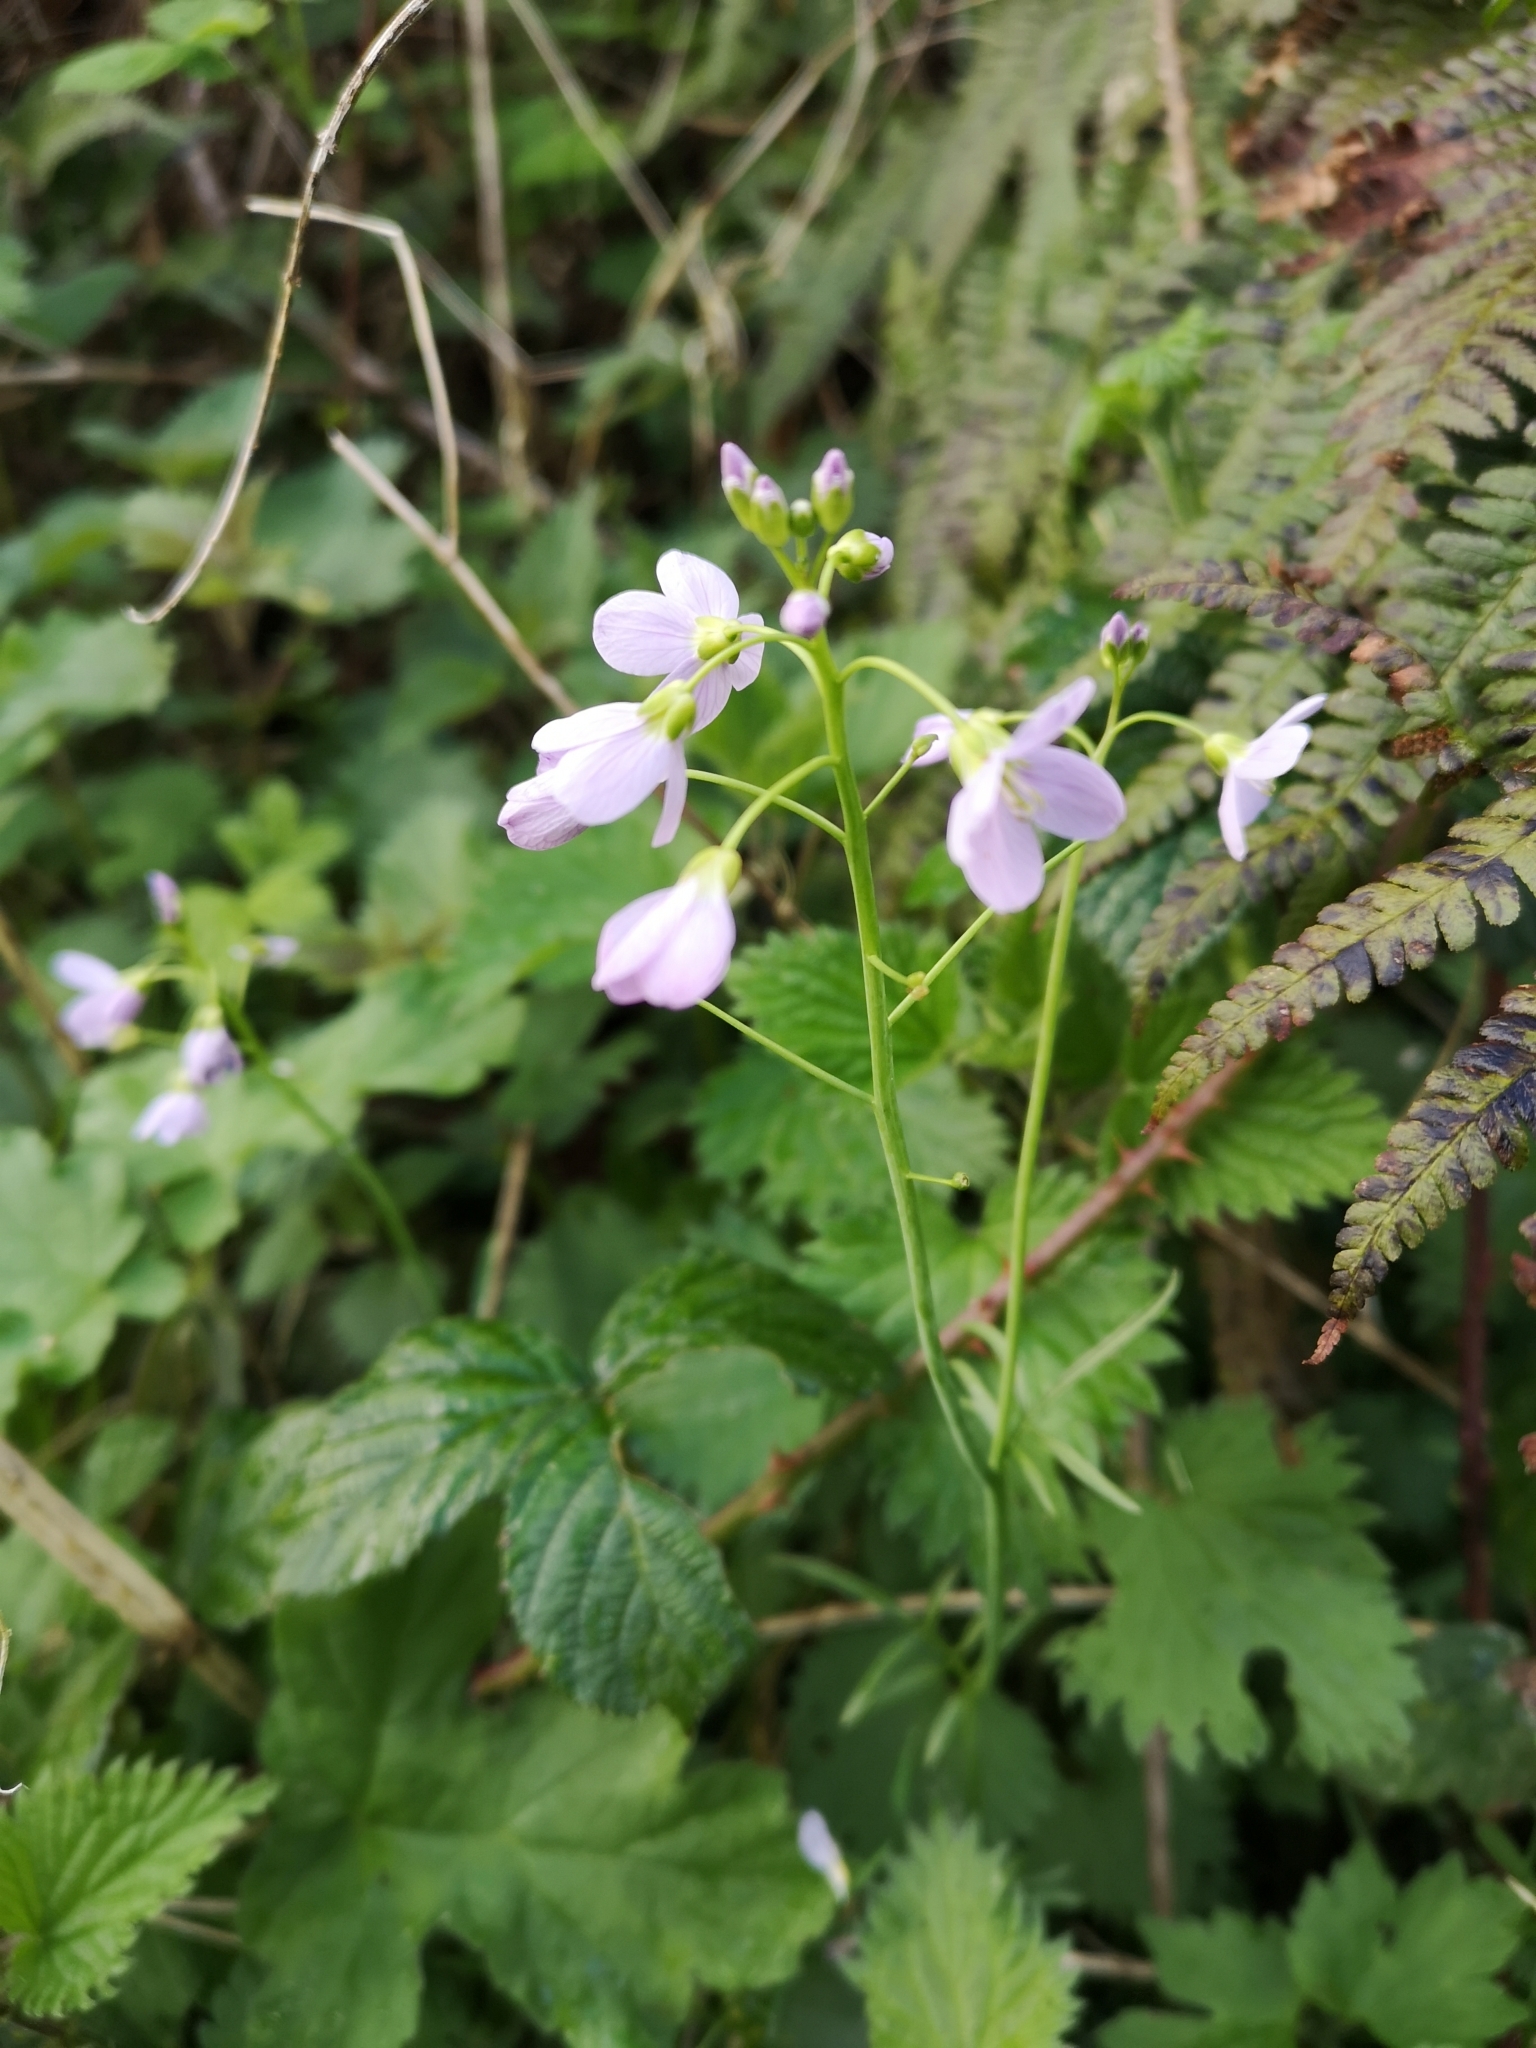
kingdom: Plantae
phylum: Tracheophyta
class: Magnoliopsida
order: Brassicales
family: Brassicaceae
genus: Cardamine
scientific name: Cardamine pratensis
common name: Cuckoo flower
